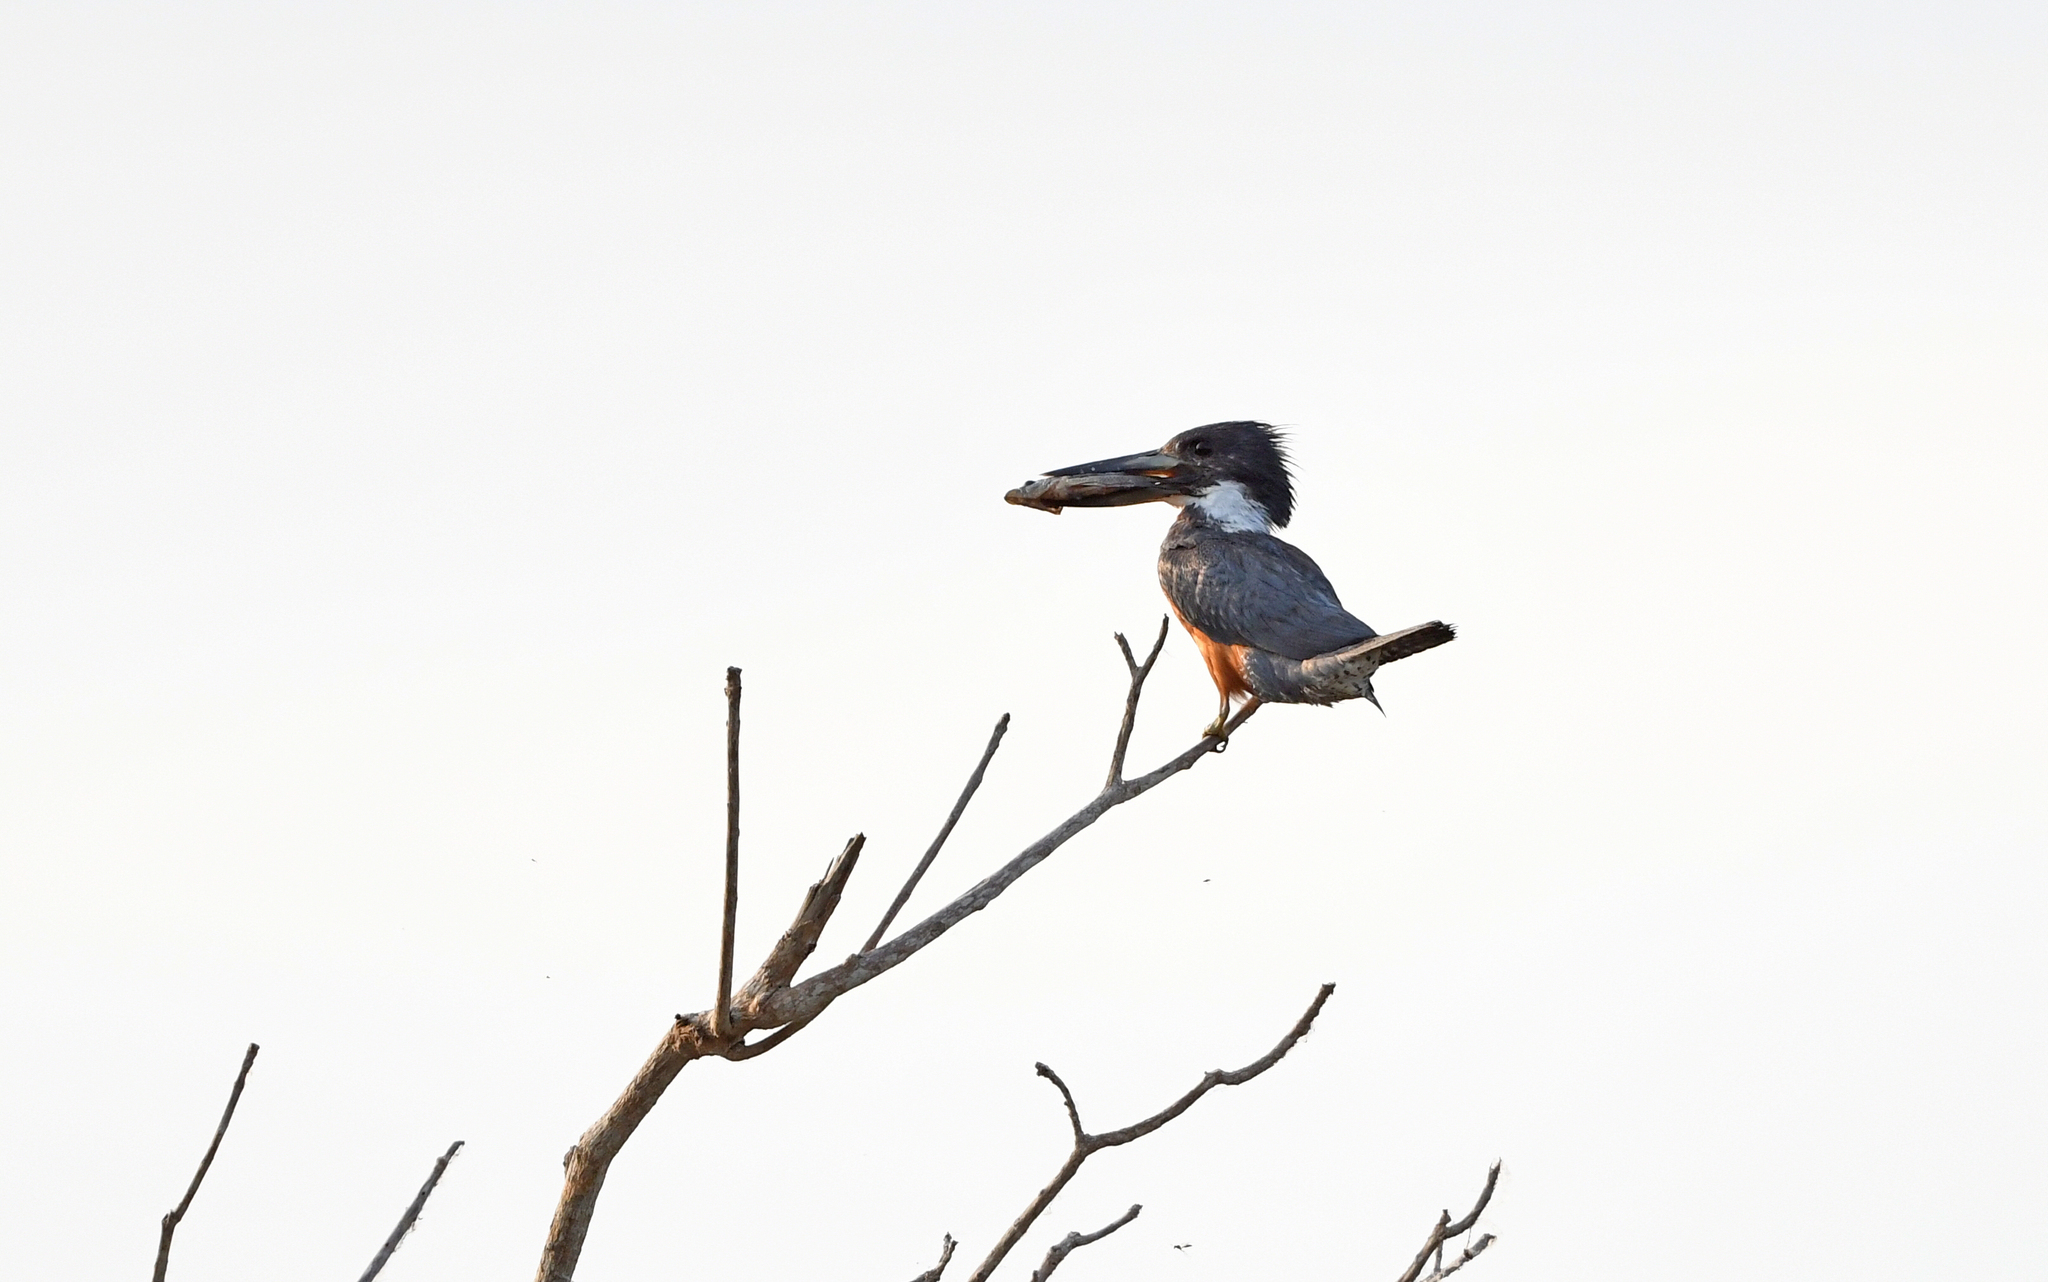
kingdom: Animalia
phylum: Chordata
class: Aves
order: Coraciiformes
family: Alcedinidae
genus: Megaceryle
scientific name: Megaceryle torquata
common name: Ringed kingfisher
